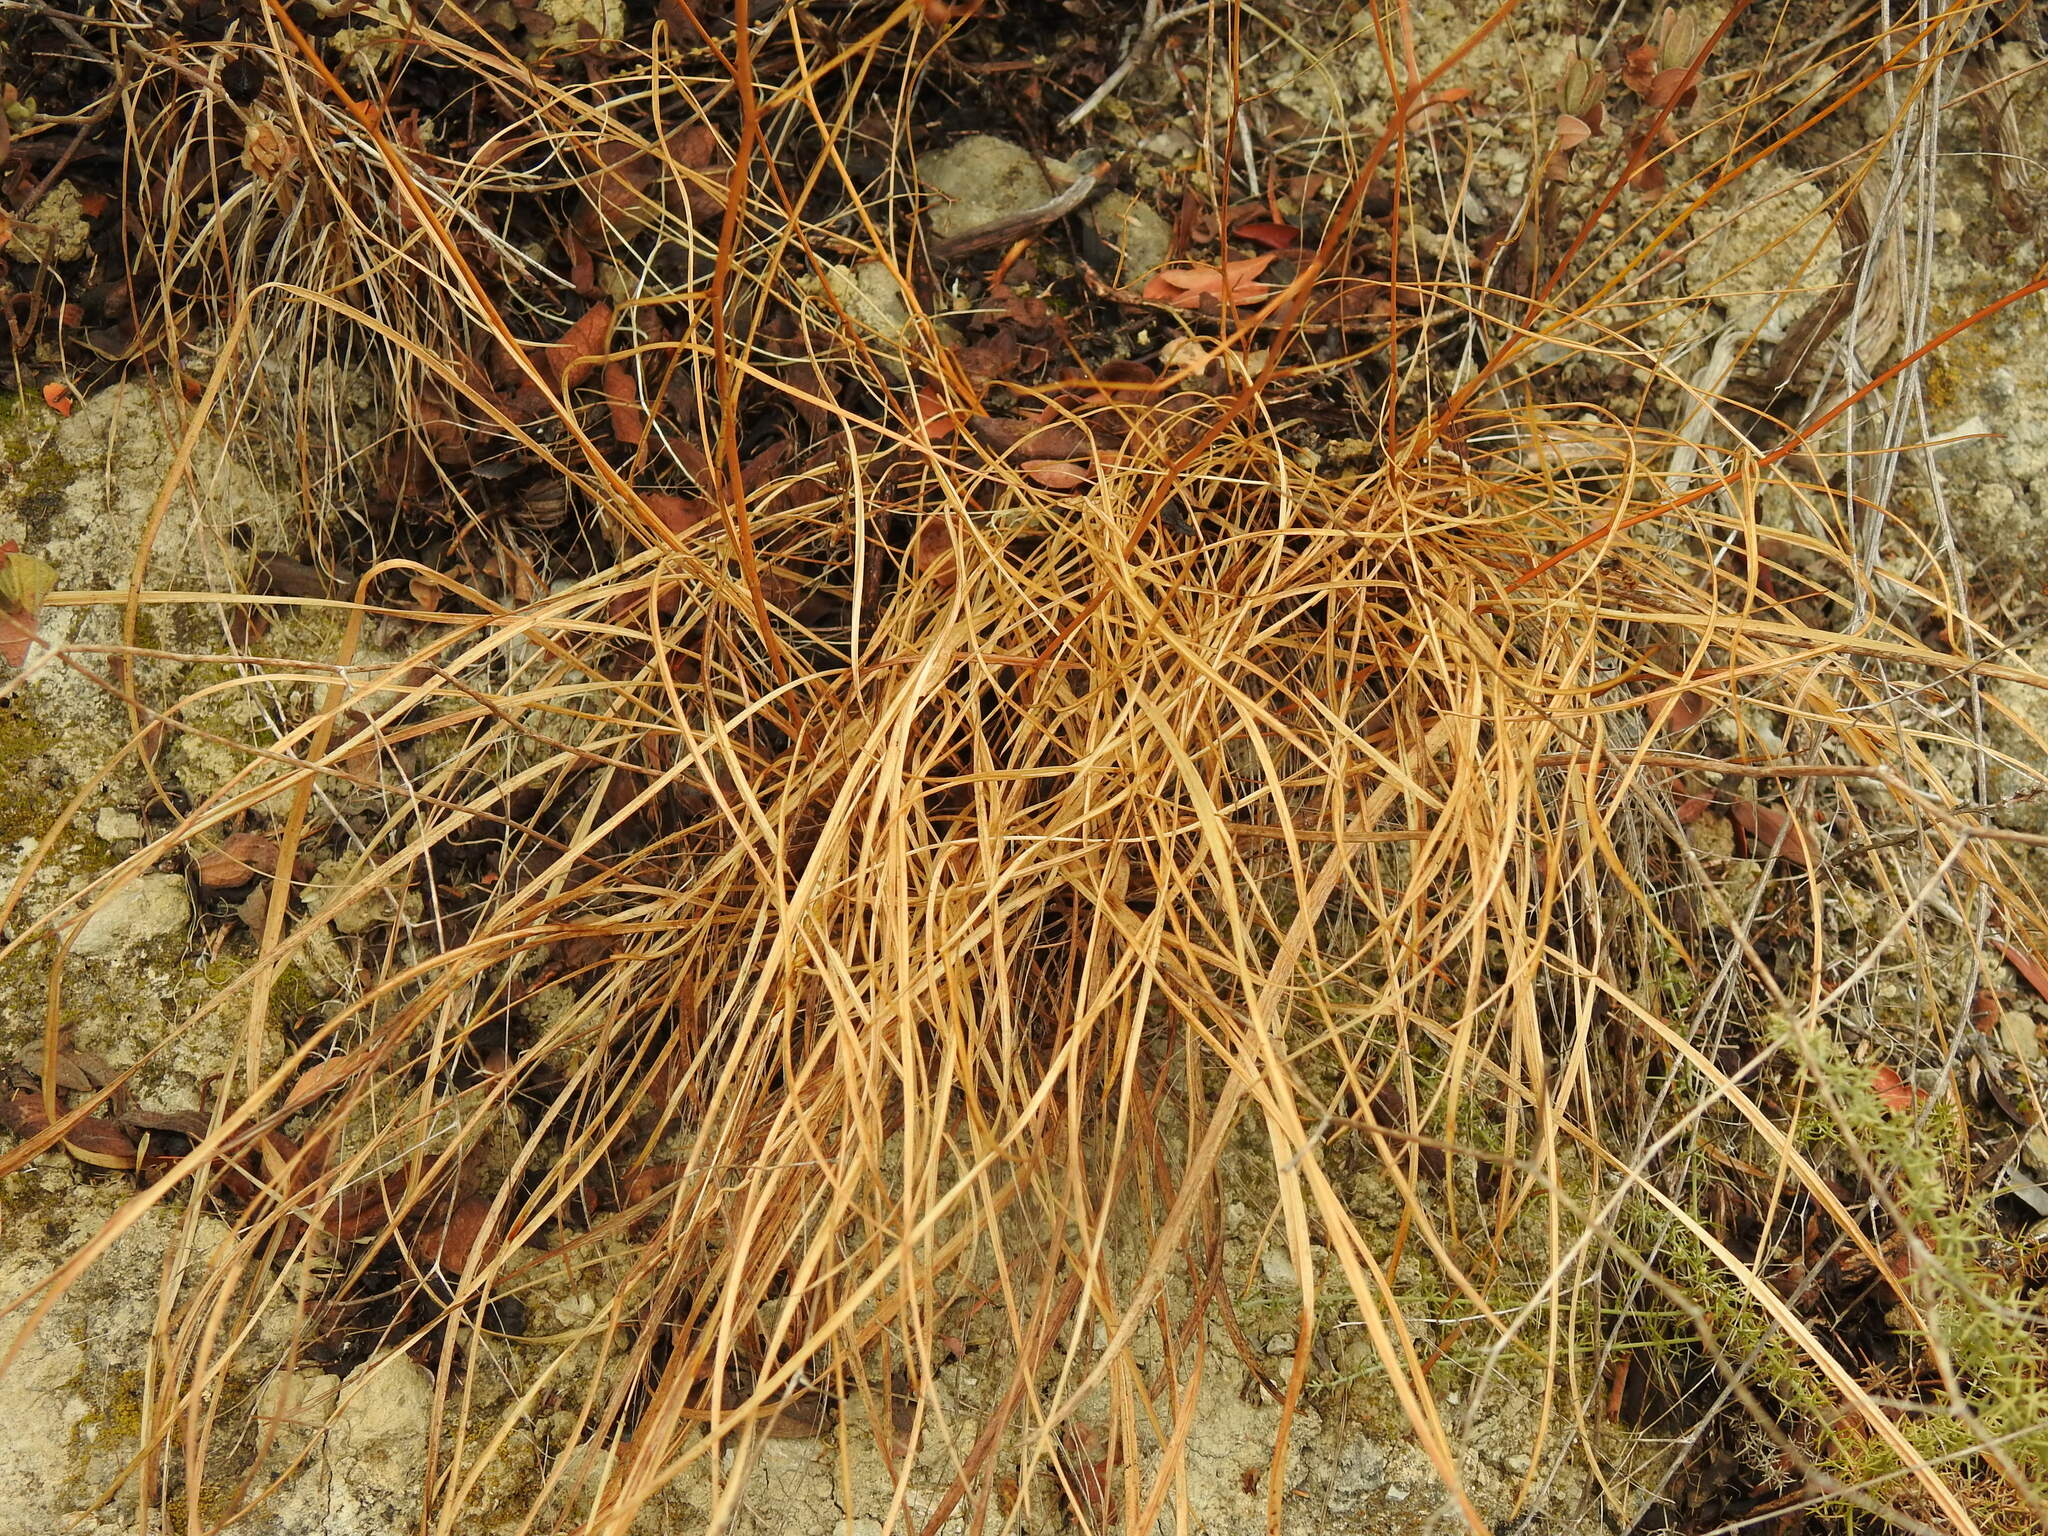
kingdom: Plantae
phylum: Tracheophyta
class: Magnoliopsida
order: Apiales
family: Apiaceae
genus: Bupleurum
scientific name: Bupleurum rigidum
